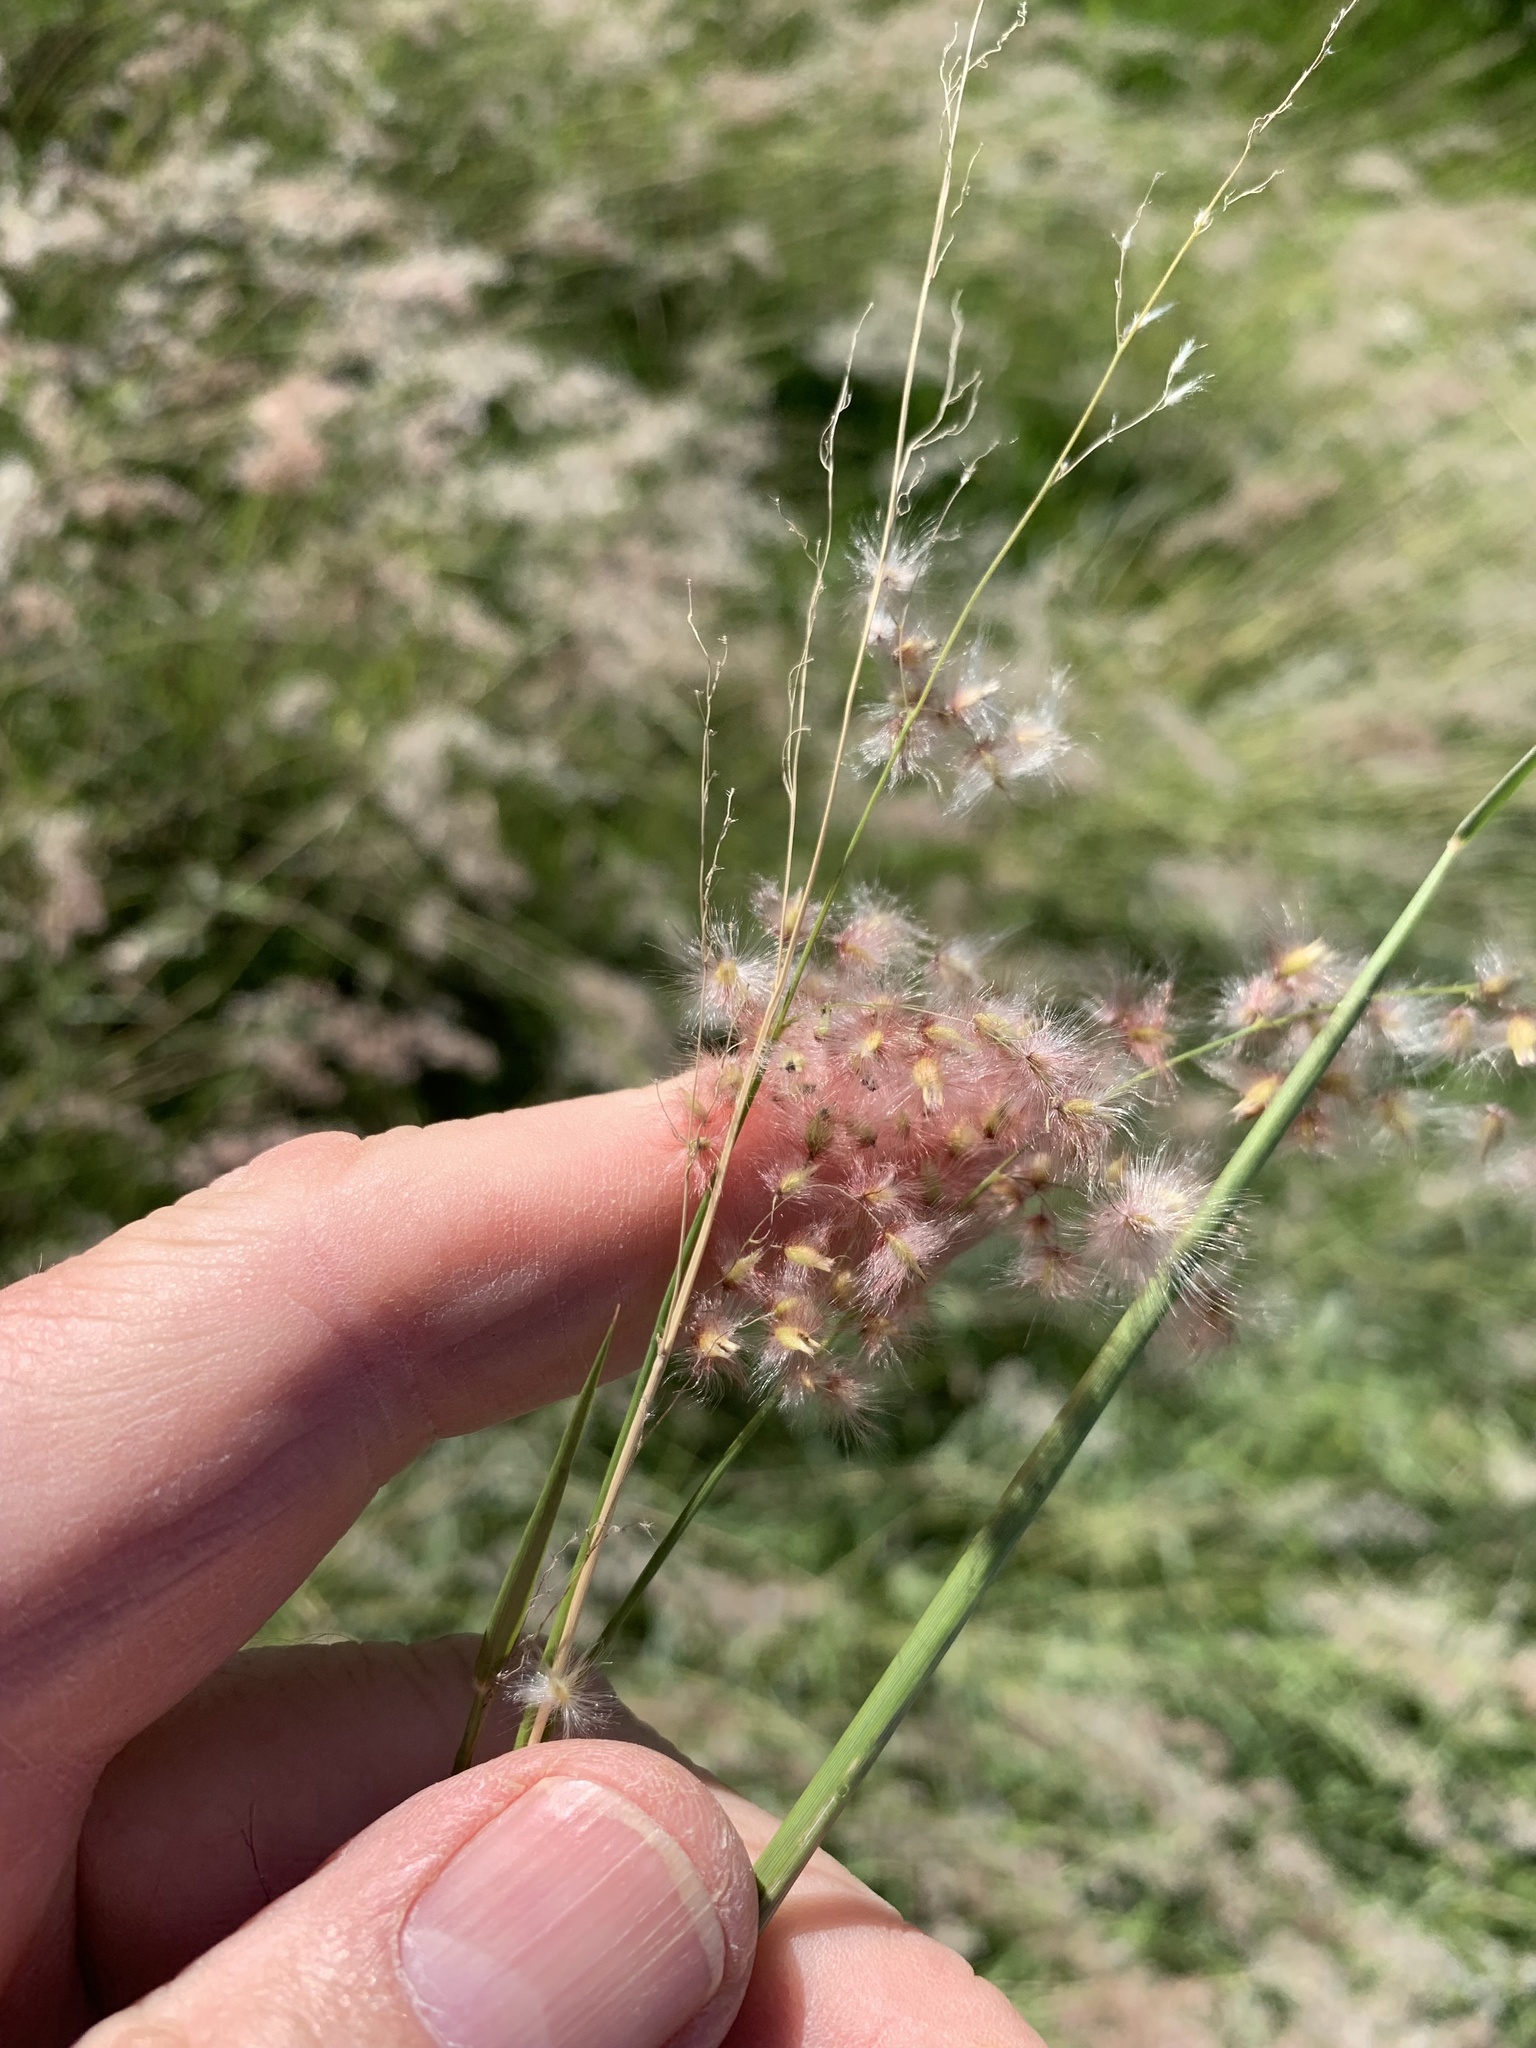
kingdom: Plantae
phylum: Tracheophyta
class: Liliopsida
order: Poales
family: Poaceae
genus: Melinis
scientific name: Melinis repens
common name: Rose natal grass
